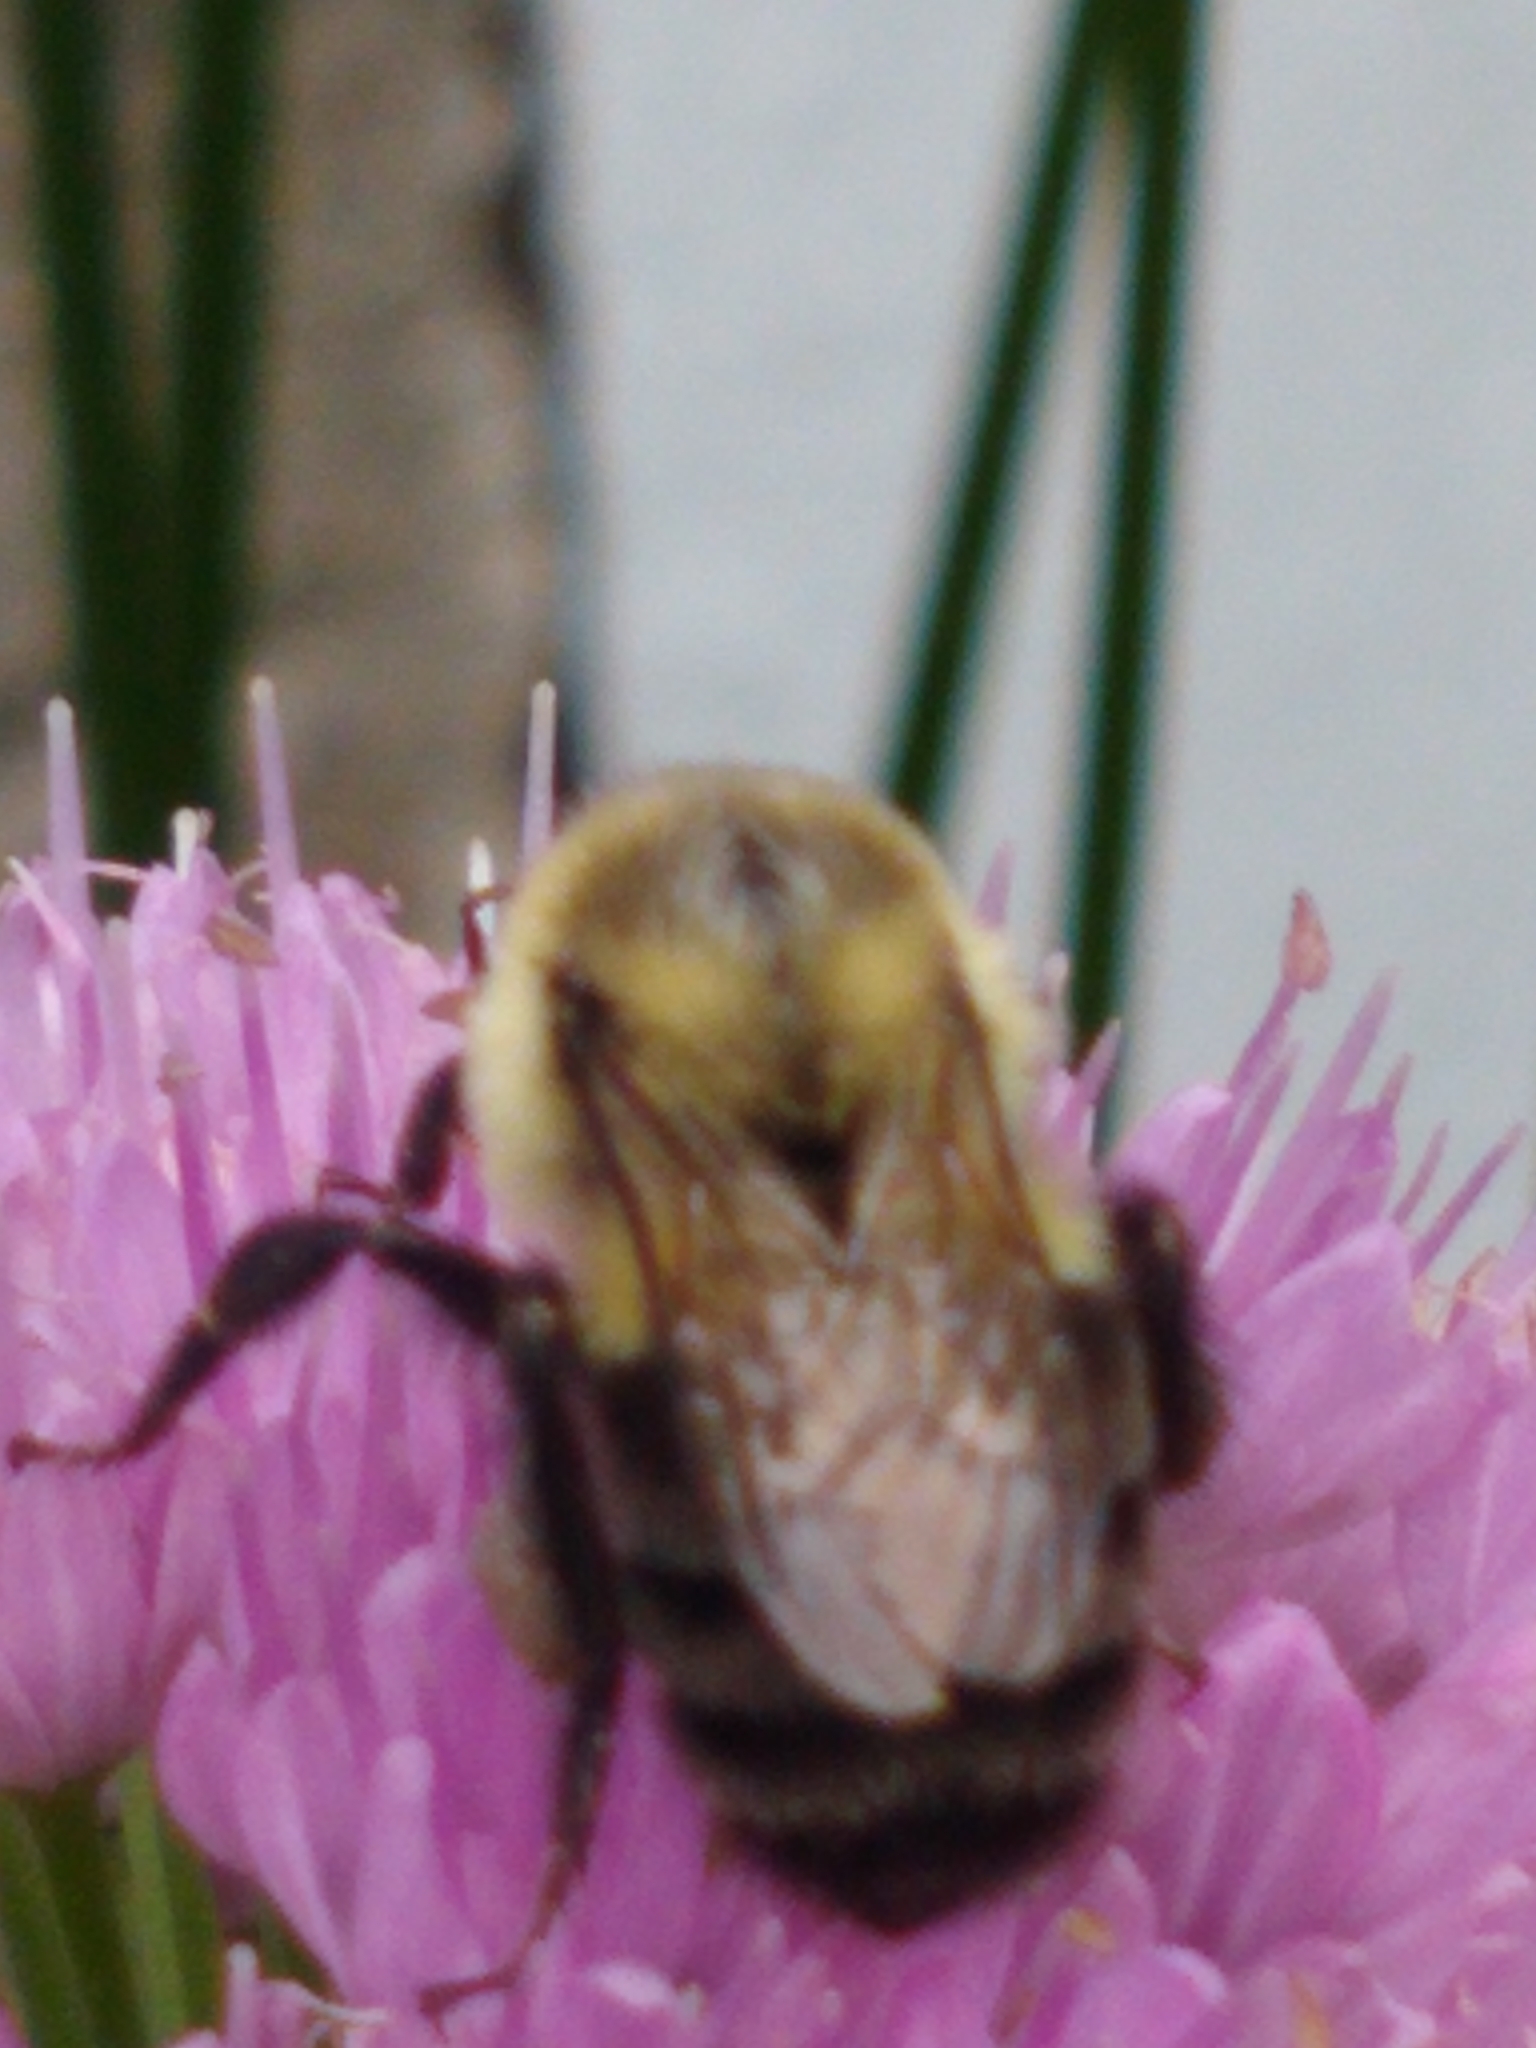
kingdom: Animalia
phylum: Arthropoda
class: Insecta
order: Hymenoptera
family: Apidae
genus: Bombus
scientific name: Bombus impatiens
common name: Common eastern bumble bee
